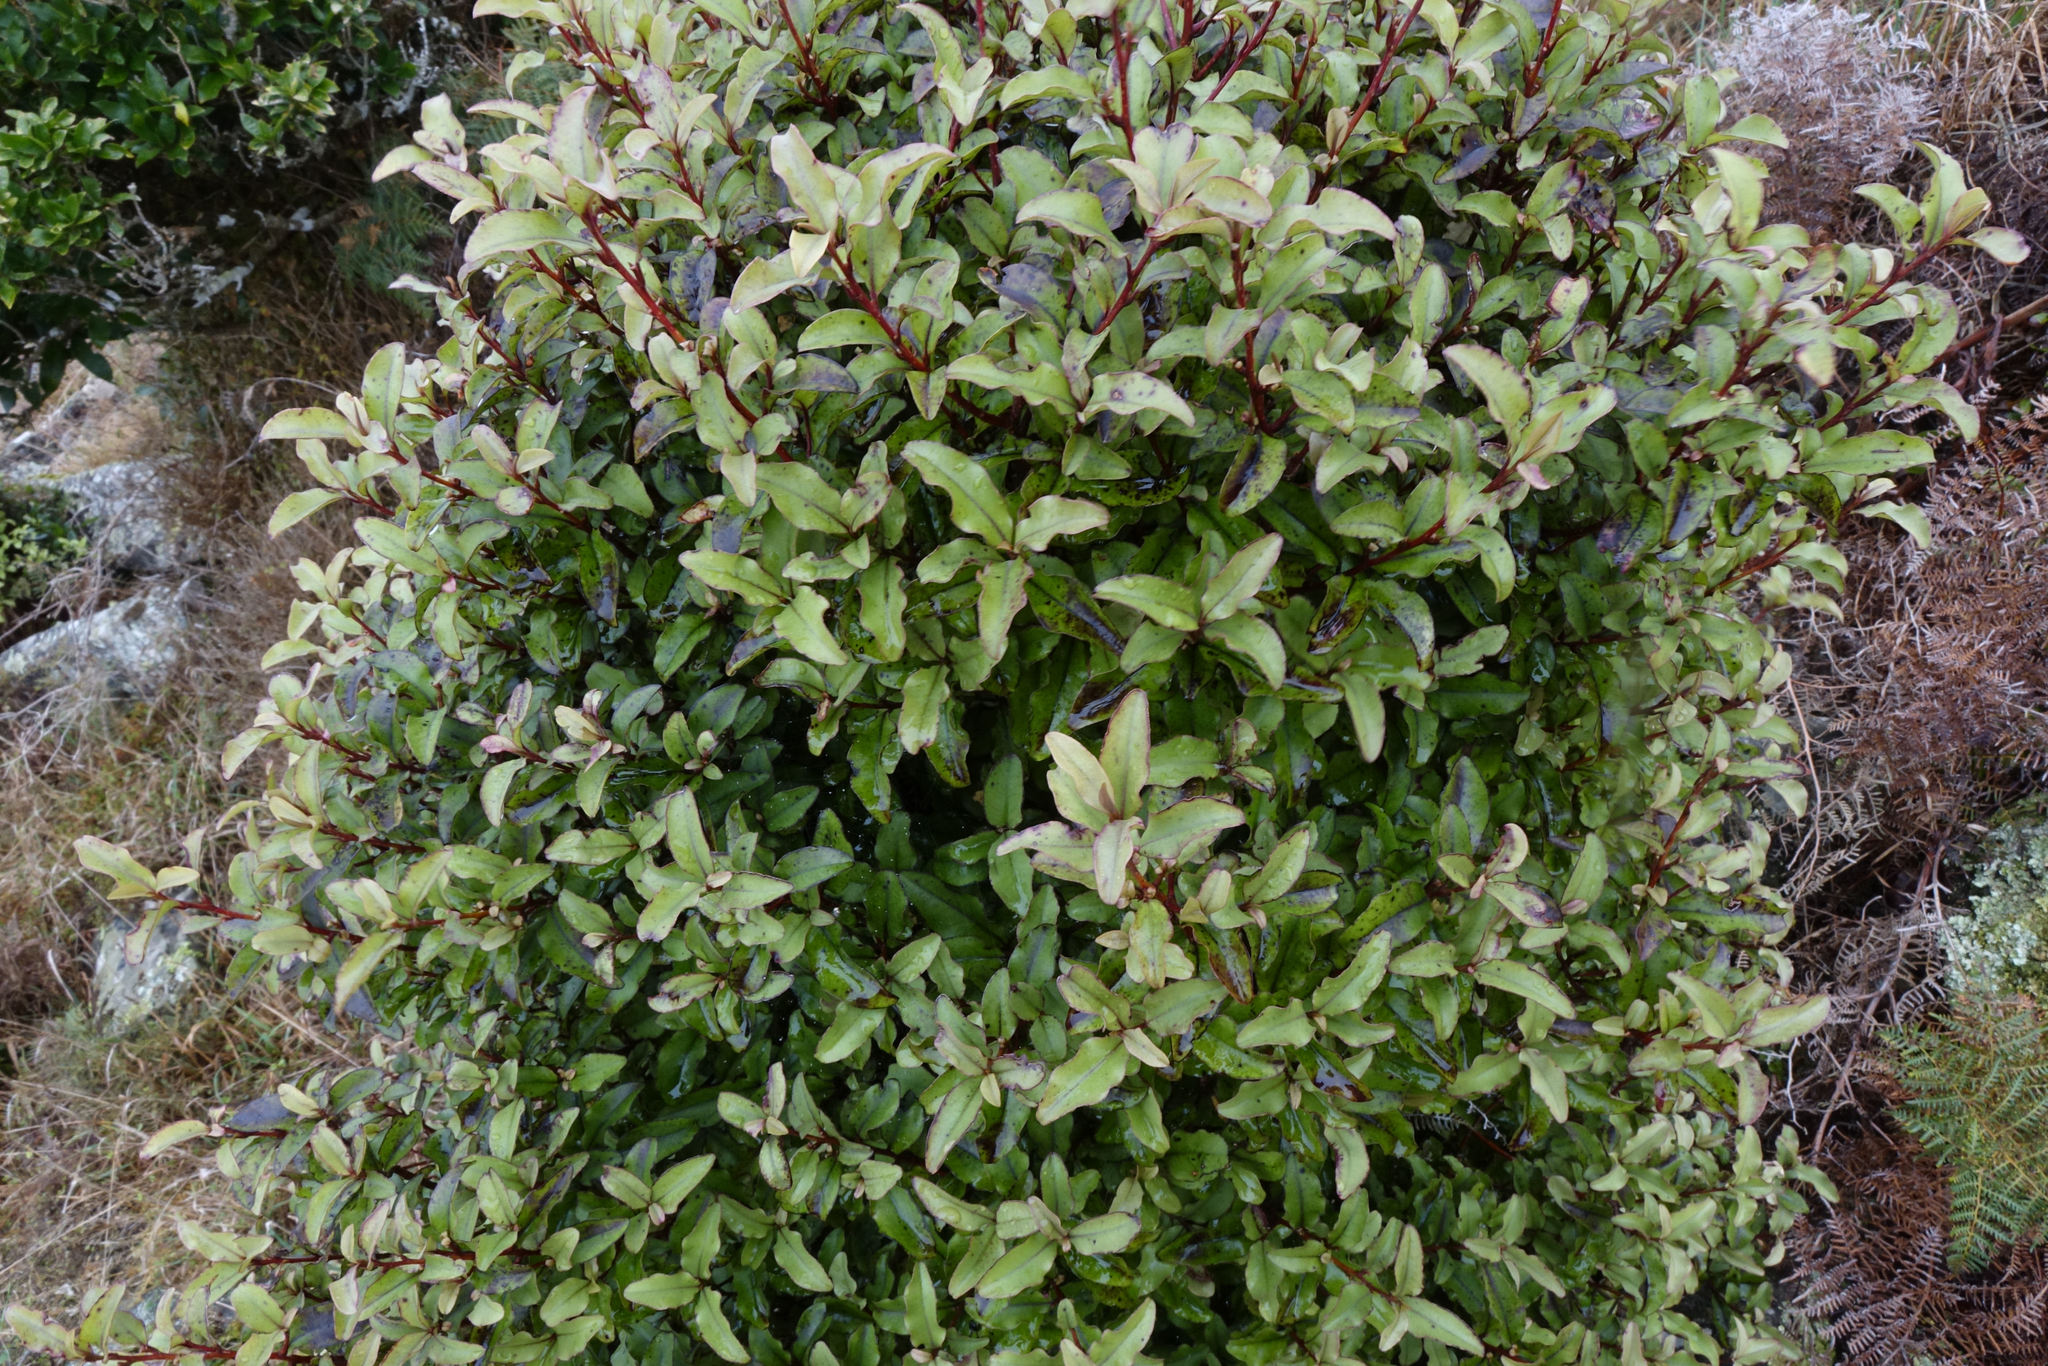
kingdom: Plantae
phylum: Tracheophyta
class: Magnoliopsida
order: Ericales
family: Primulaceae
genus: Myrsine
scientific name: Myrsine australis
